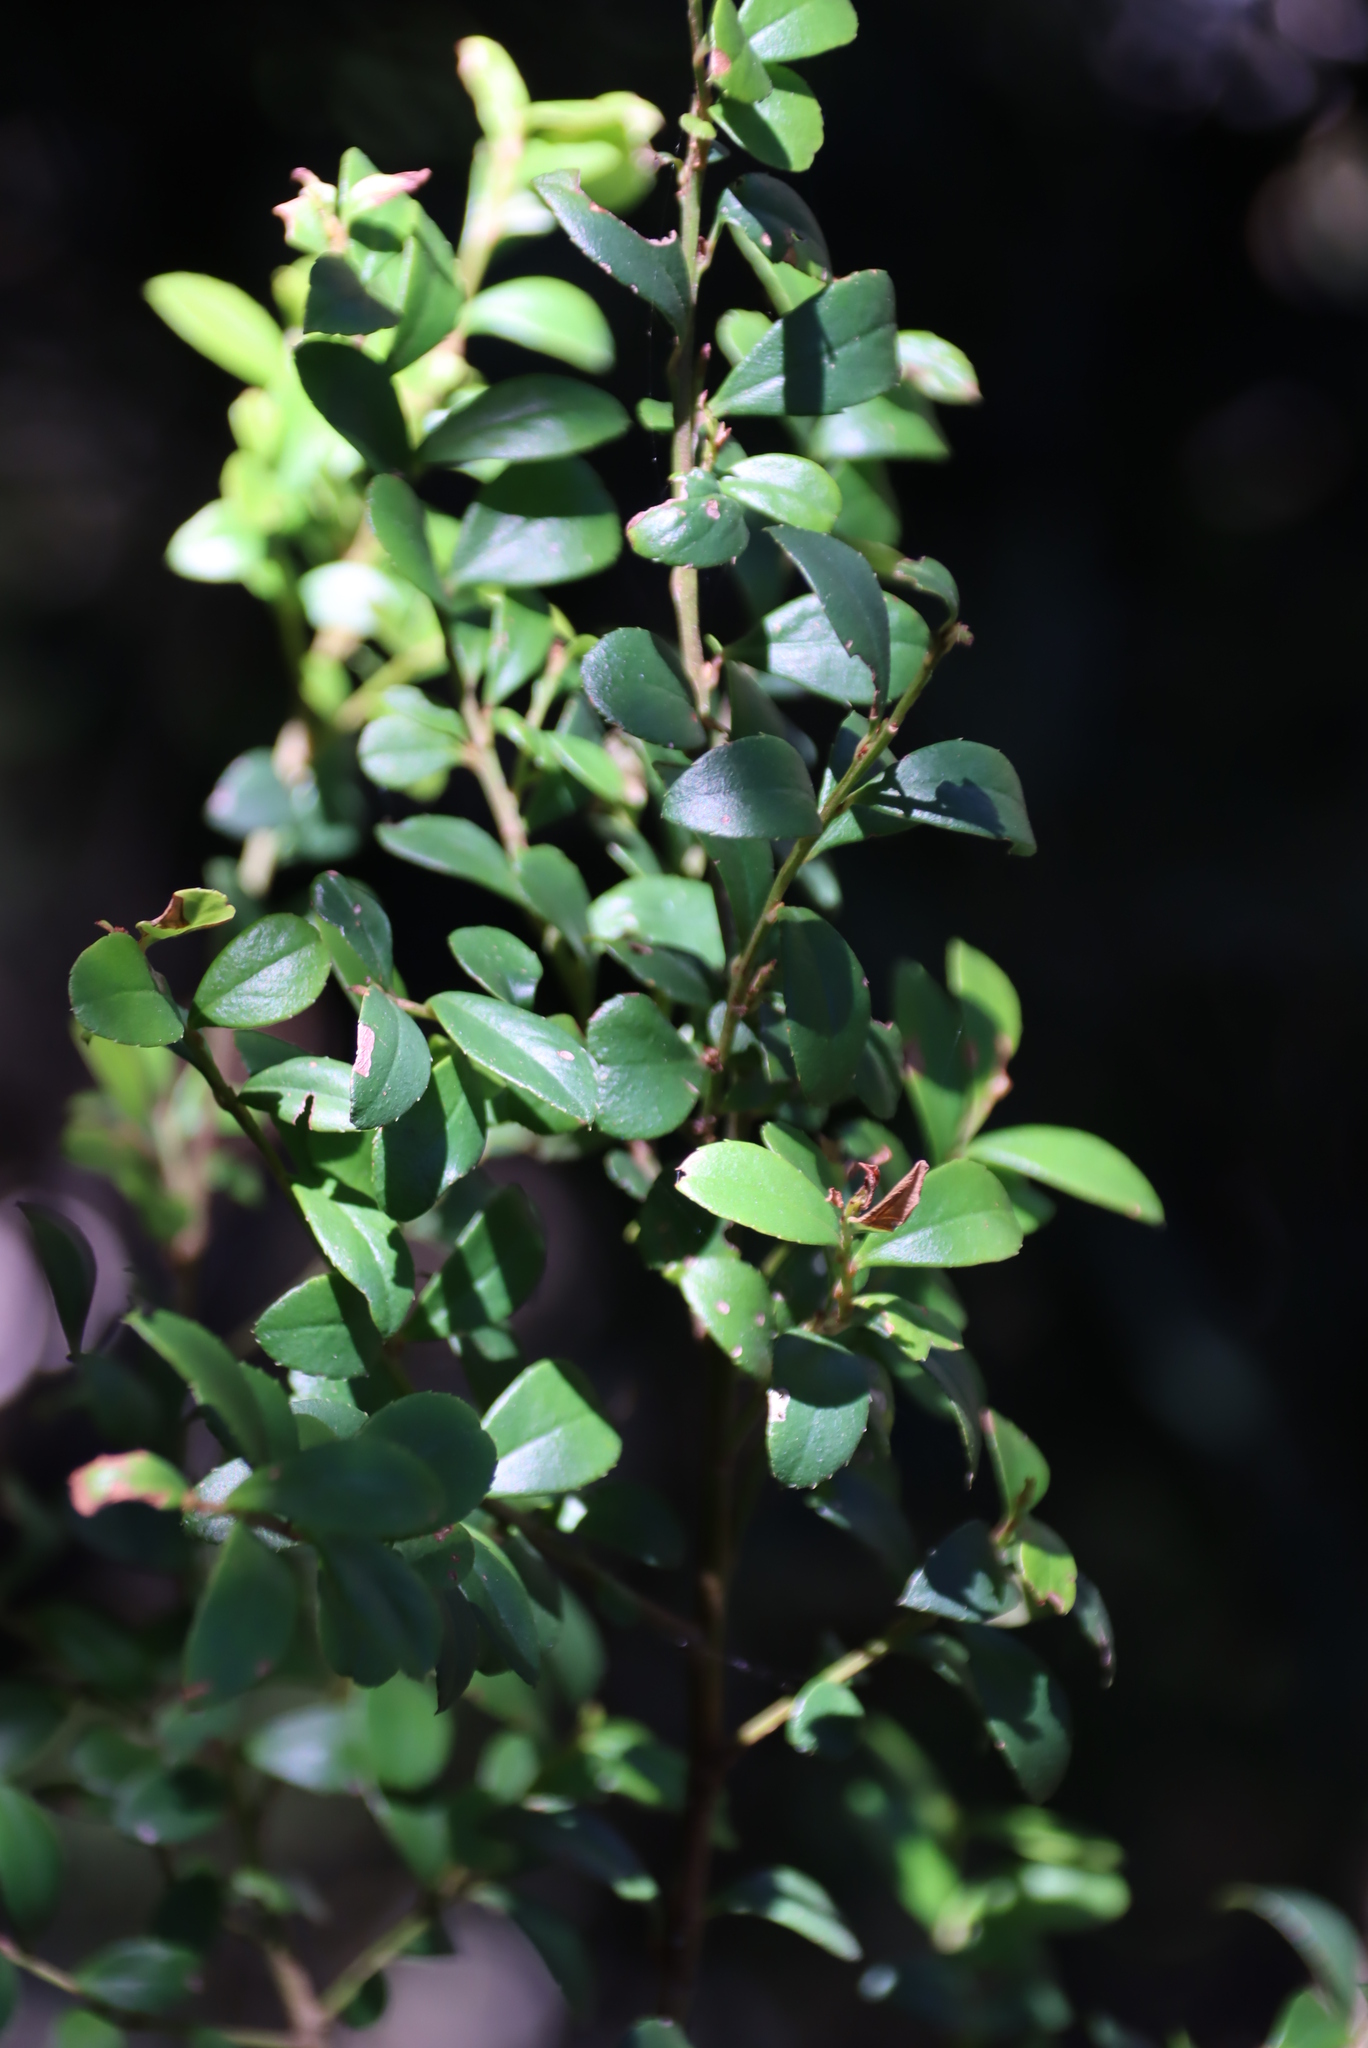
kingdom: Plantae
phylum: Tracheophyta
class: Magnoliopsida
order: Ericales
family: Primulaceae
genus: Myrsine
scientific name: Myrsine africana
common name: African-boxwood
